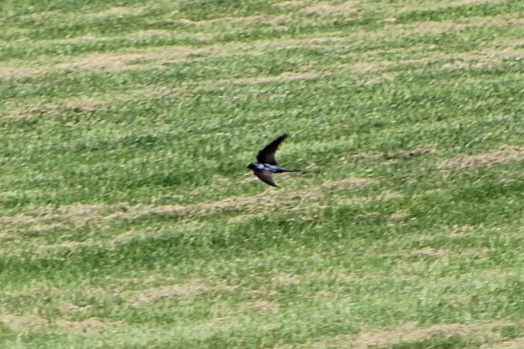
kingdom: Animalia
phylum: Chordata
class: Aves
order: Passeriformes
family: Hirundinidae
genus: Hirundo
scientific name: Hirundo rustica
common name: Barn swallow
